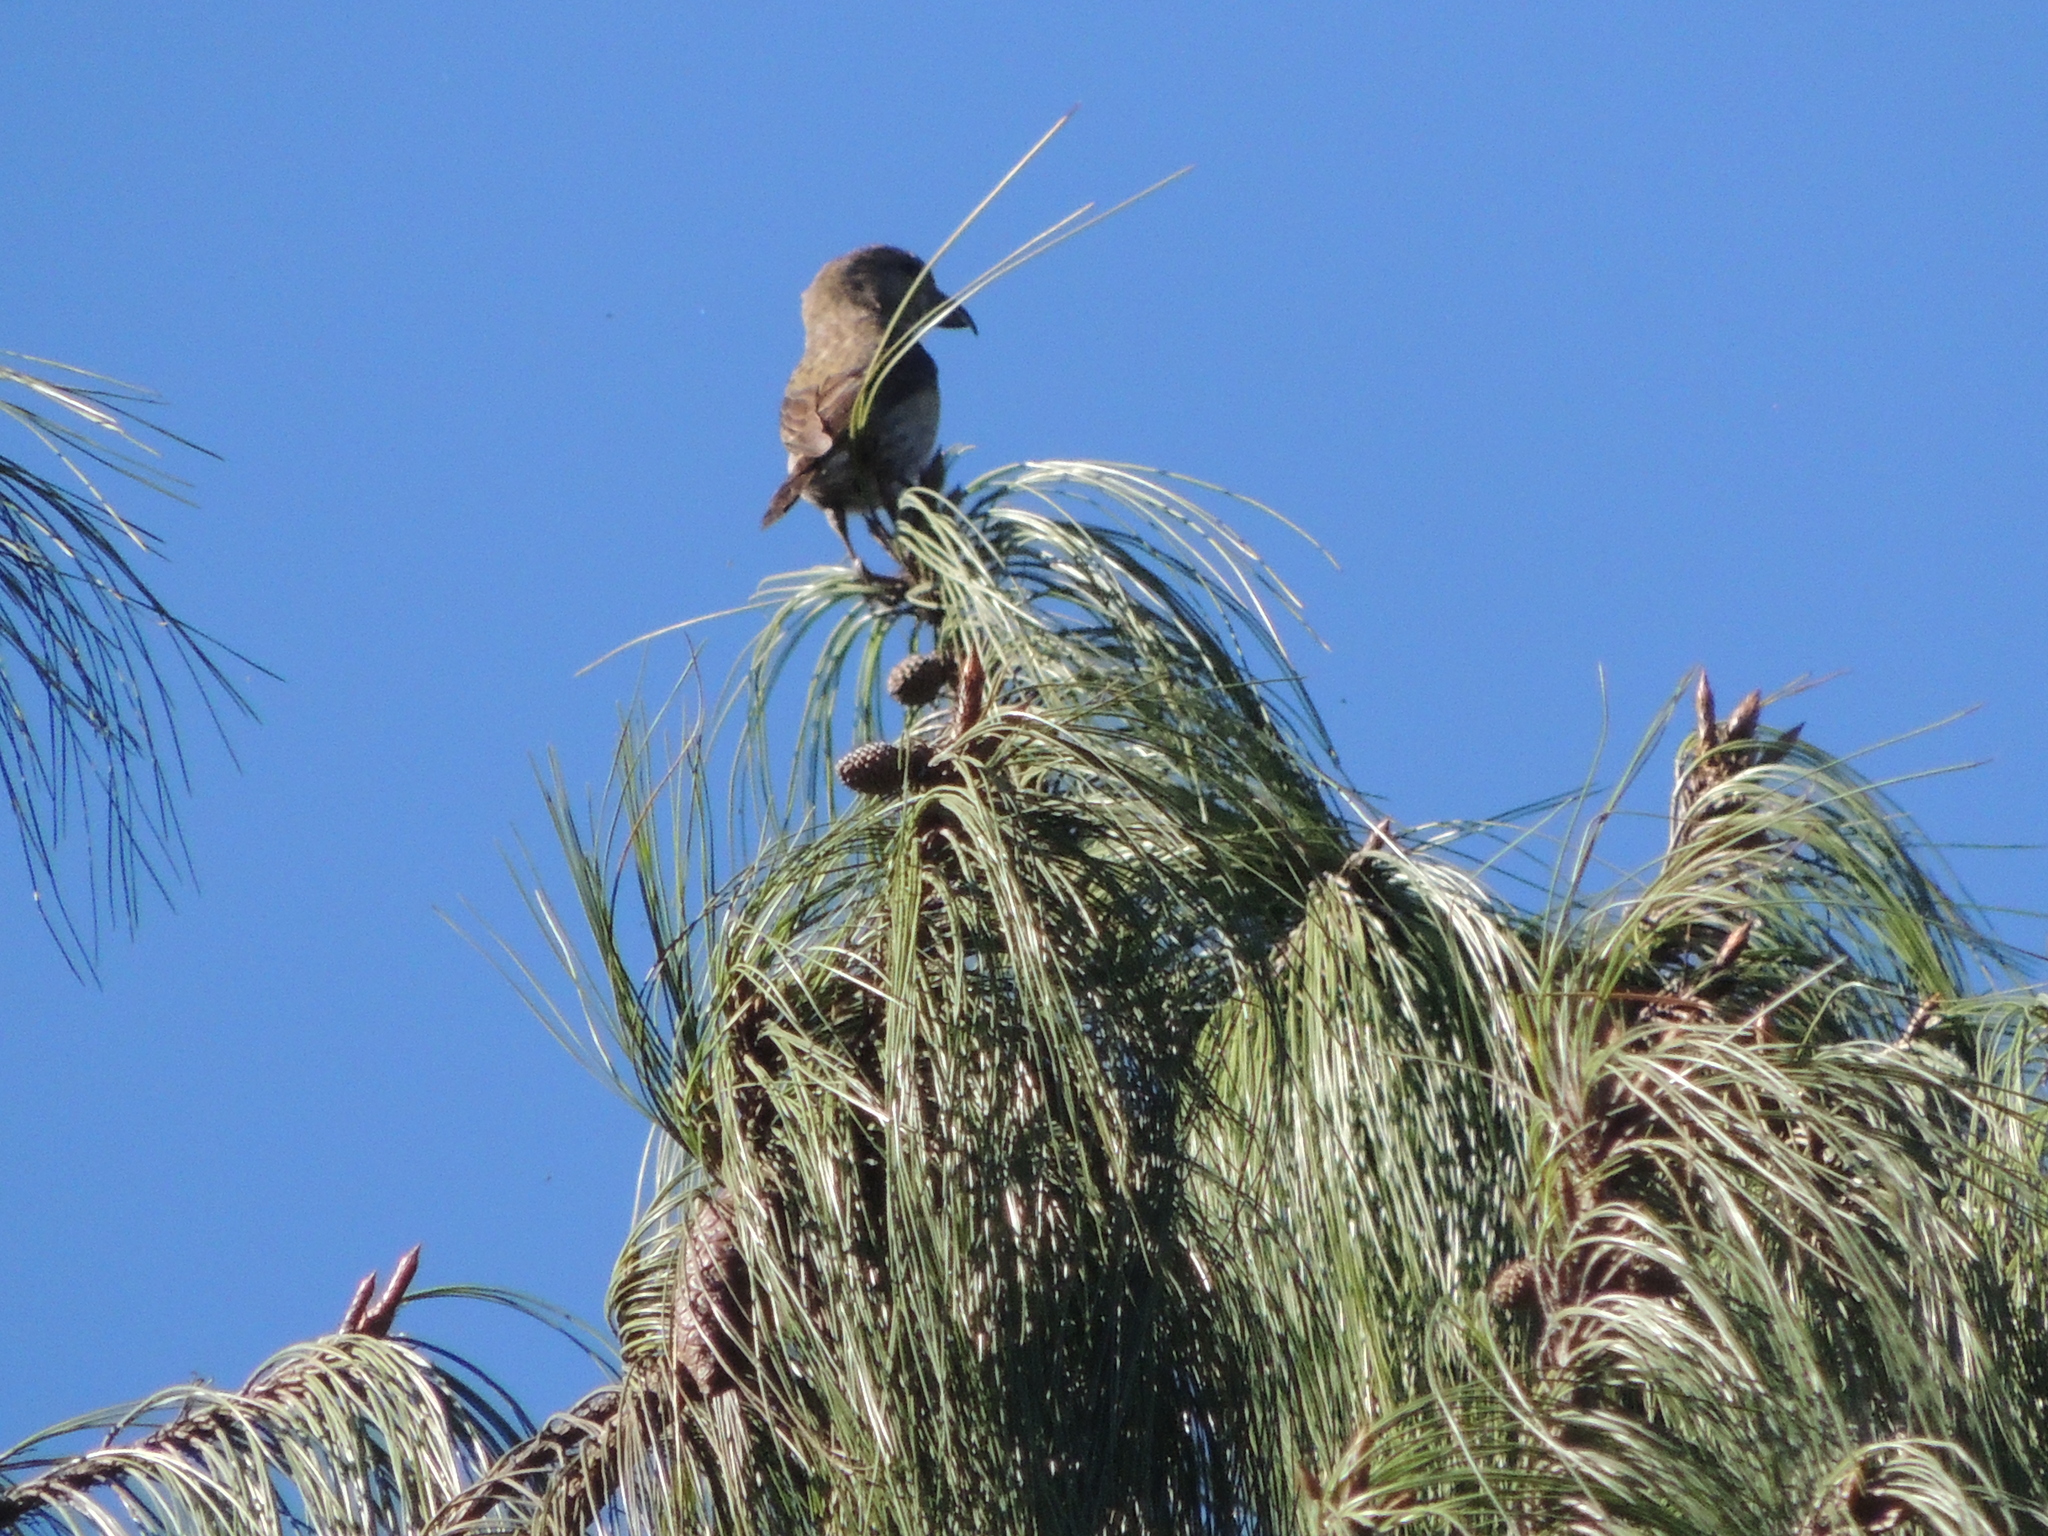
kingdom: Animalia
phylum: Chordata
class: Aves
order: Passeriformes
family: Fringillidae
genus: Loxia
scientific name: Loxia curvirostra
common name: Red crossbill
